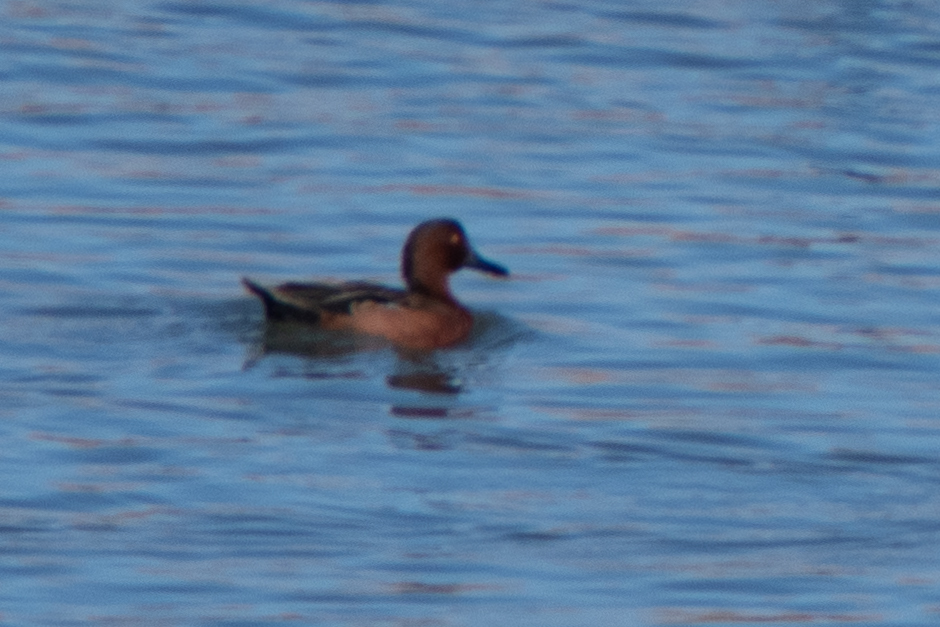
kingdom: Animalia
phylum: Chordata
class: Aves
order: Anseriformes
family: Anatidae
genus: Spatula
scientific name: Spatula cyanoptera
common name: Cinnamon teal
